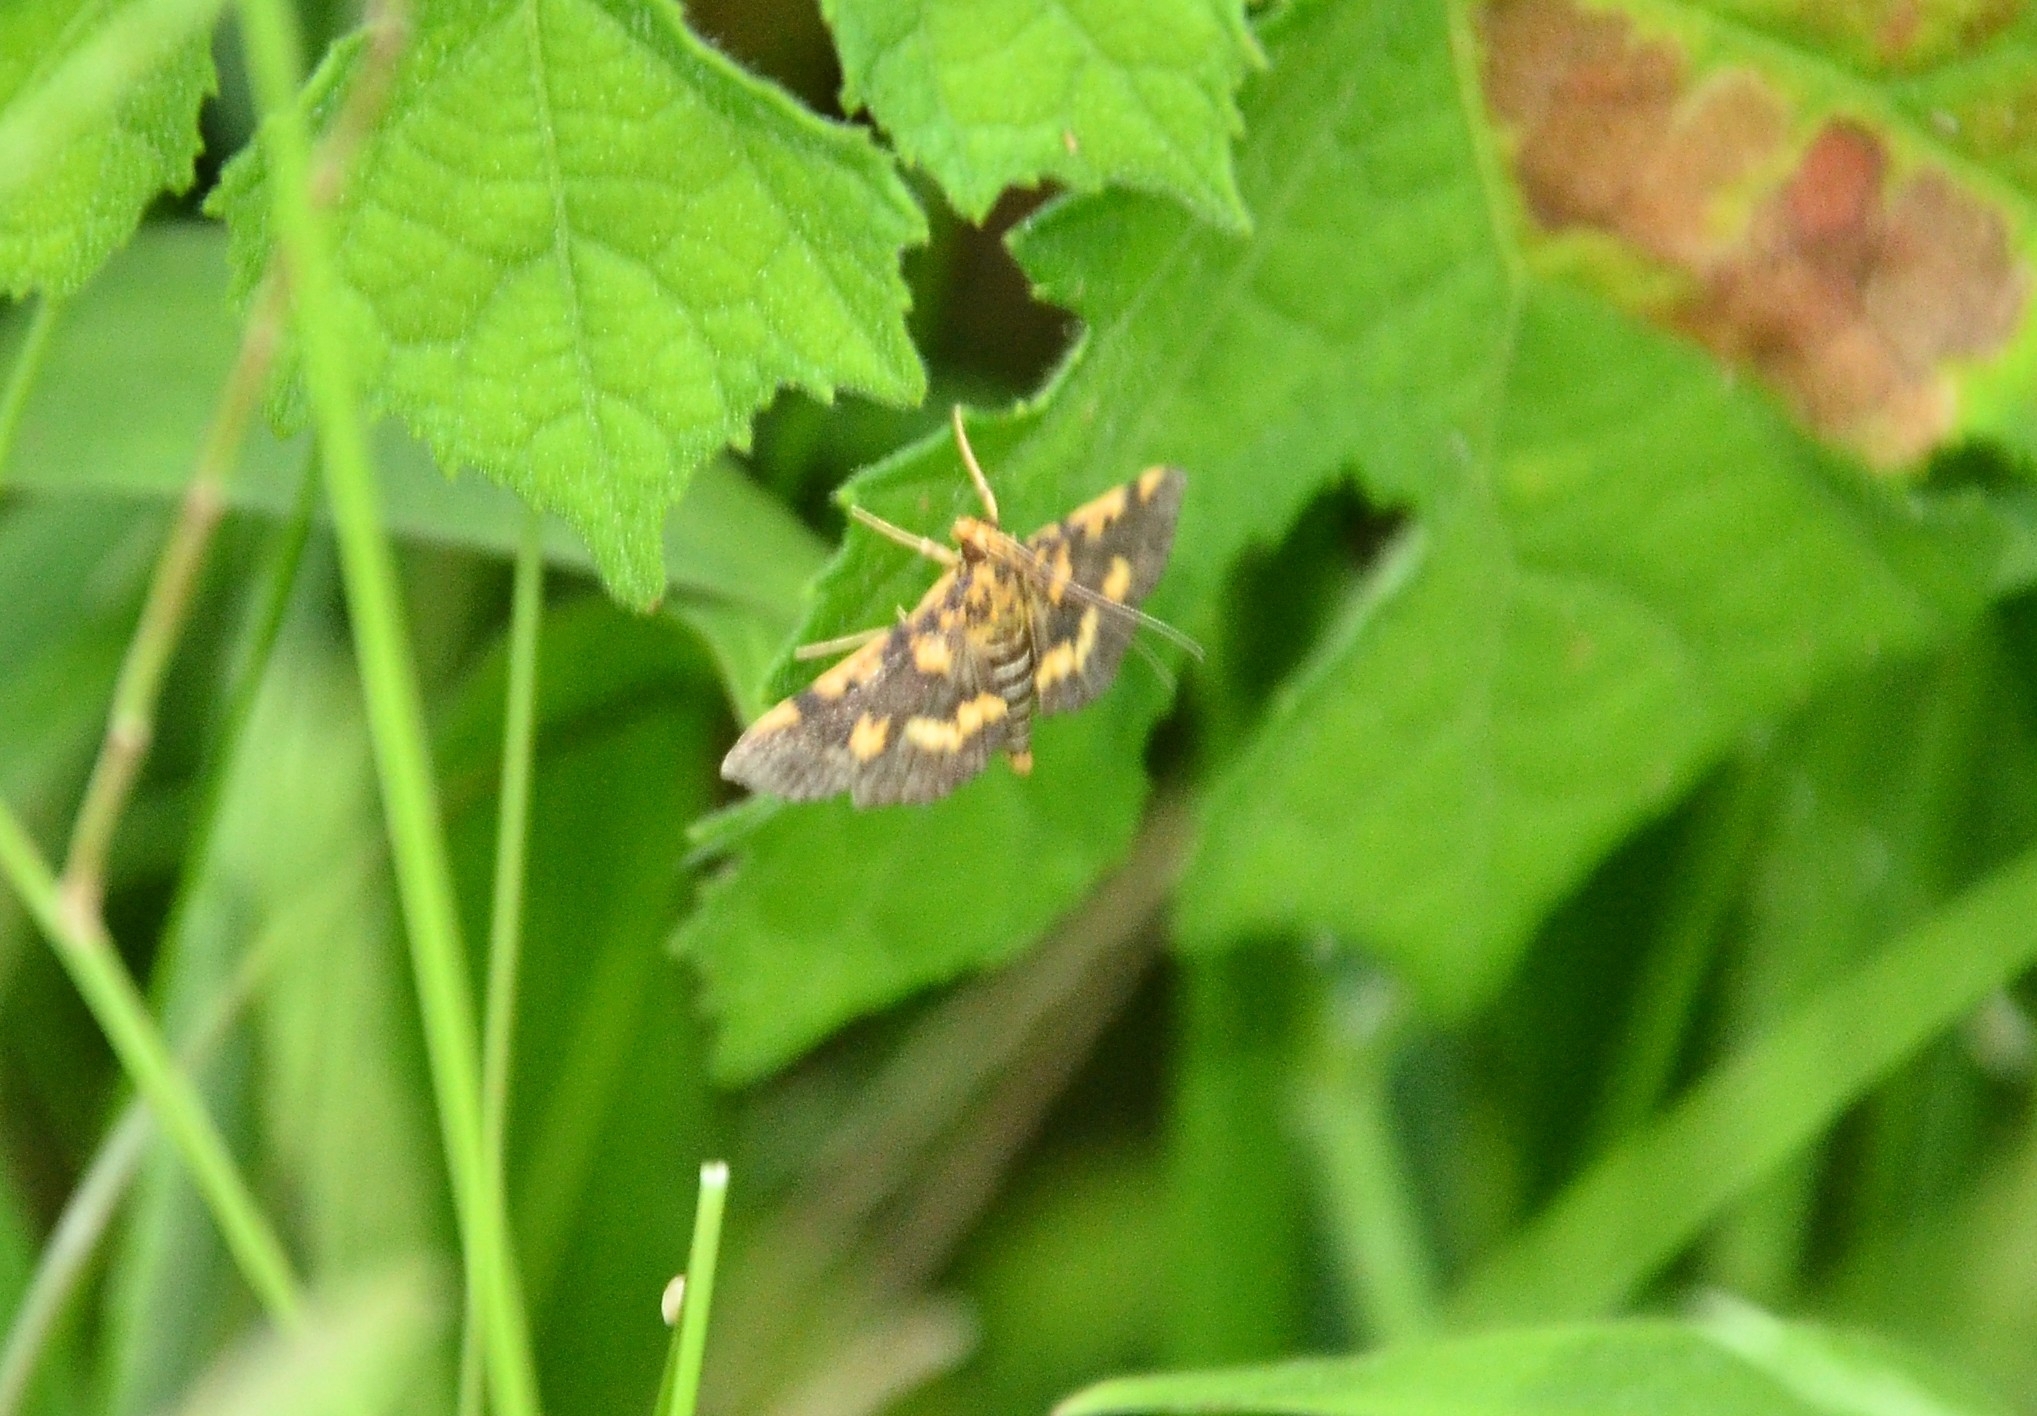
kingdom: Animalia
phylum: Arthropoda
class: Insecta
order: Lepidoptera
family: Crambidae
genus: Omiodes
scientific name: Omiodes diemenalis
